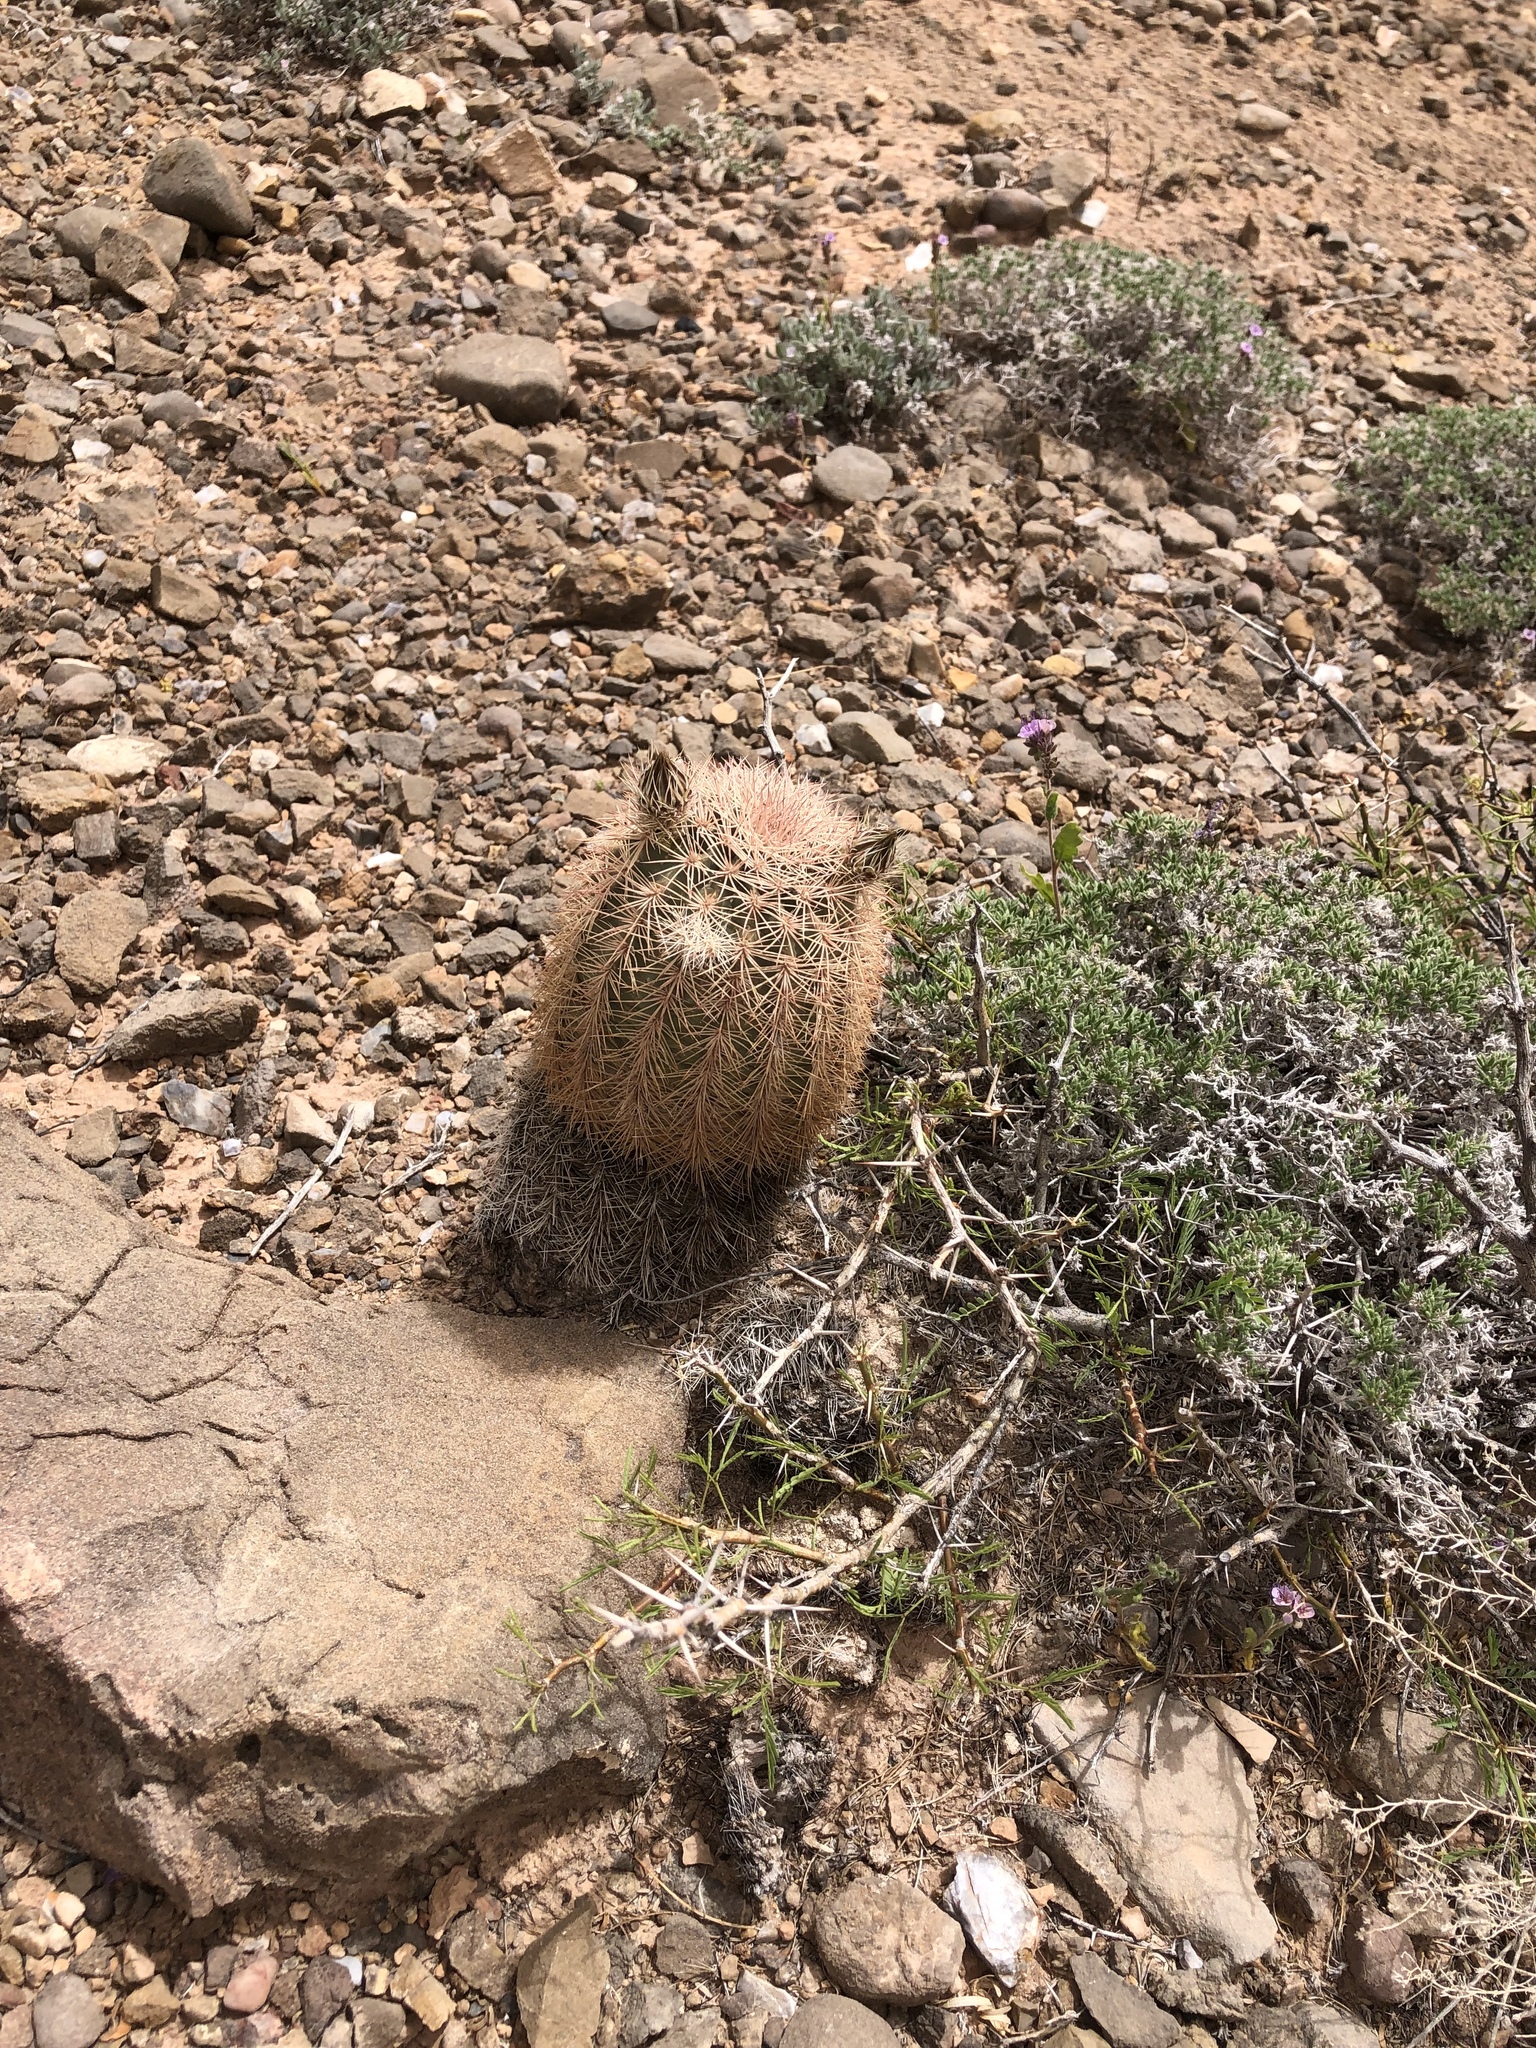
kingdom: Plantae
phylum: Tracheophyta
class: Magnoliopsida
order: Caryophyllales
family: Cactaceae
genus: Echinocereus
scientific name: Echinocereus dasyacanthus
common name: Spiny hedgehog cactus
